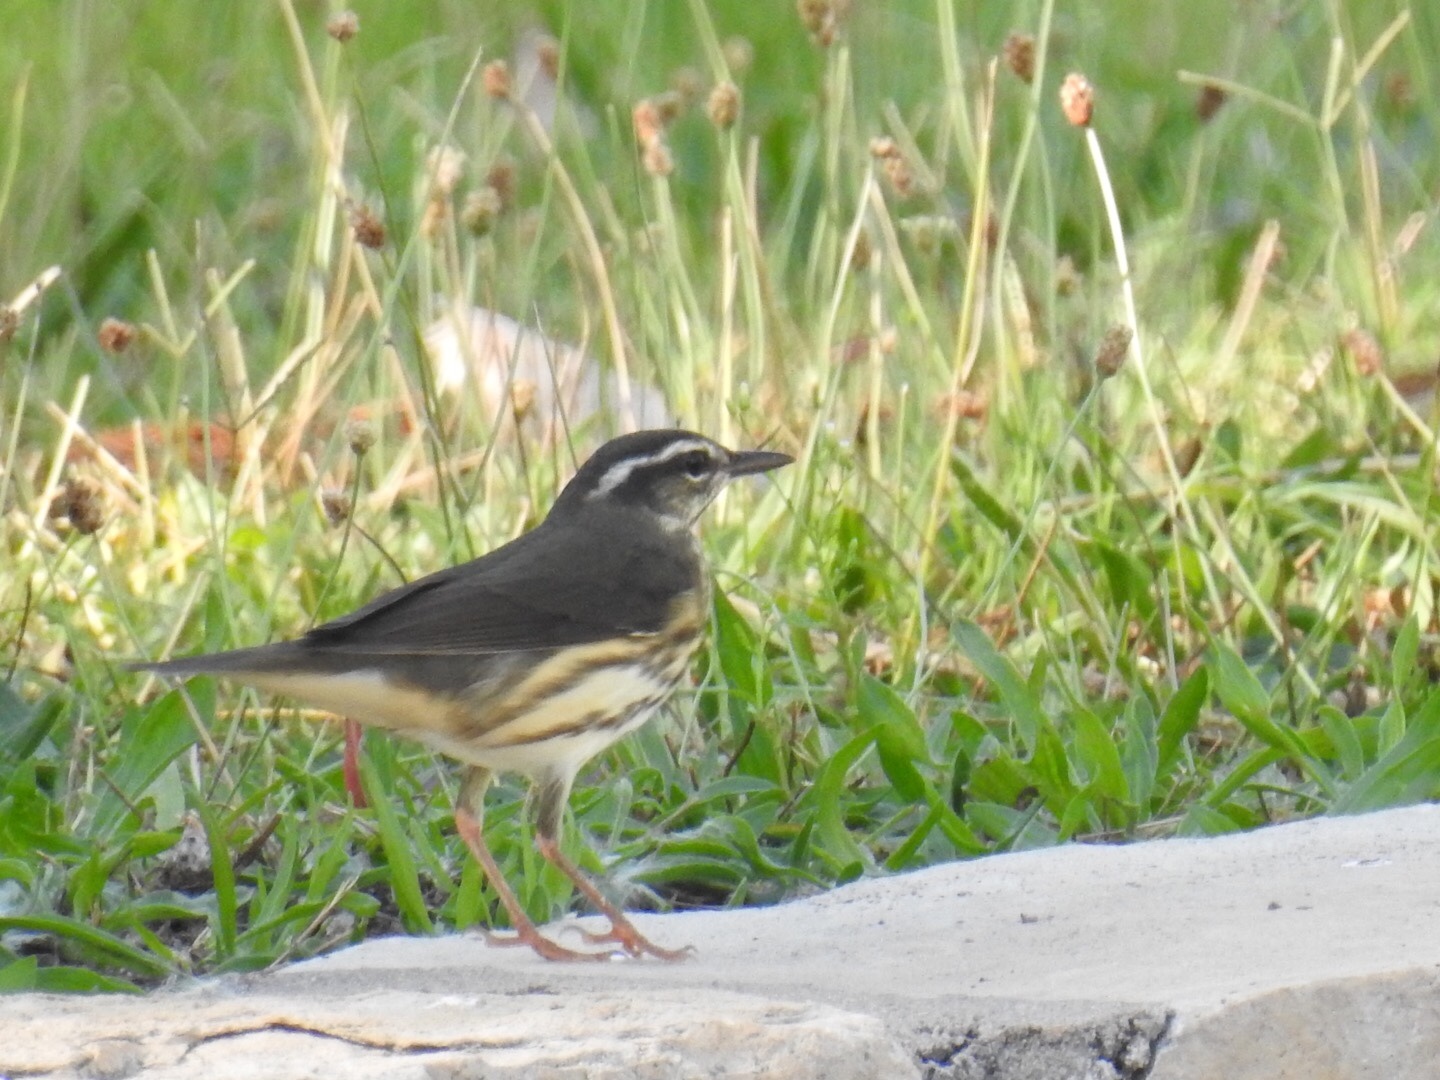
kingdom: Animalia
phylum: Chordata
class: Aves
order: Passeriformes
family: Parulidae
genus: Parkesia
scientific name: Parkesia motacilla
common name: Louisiana waterthrush
